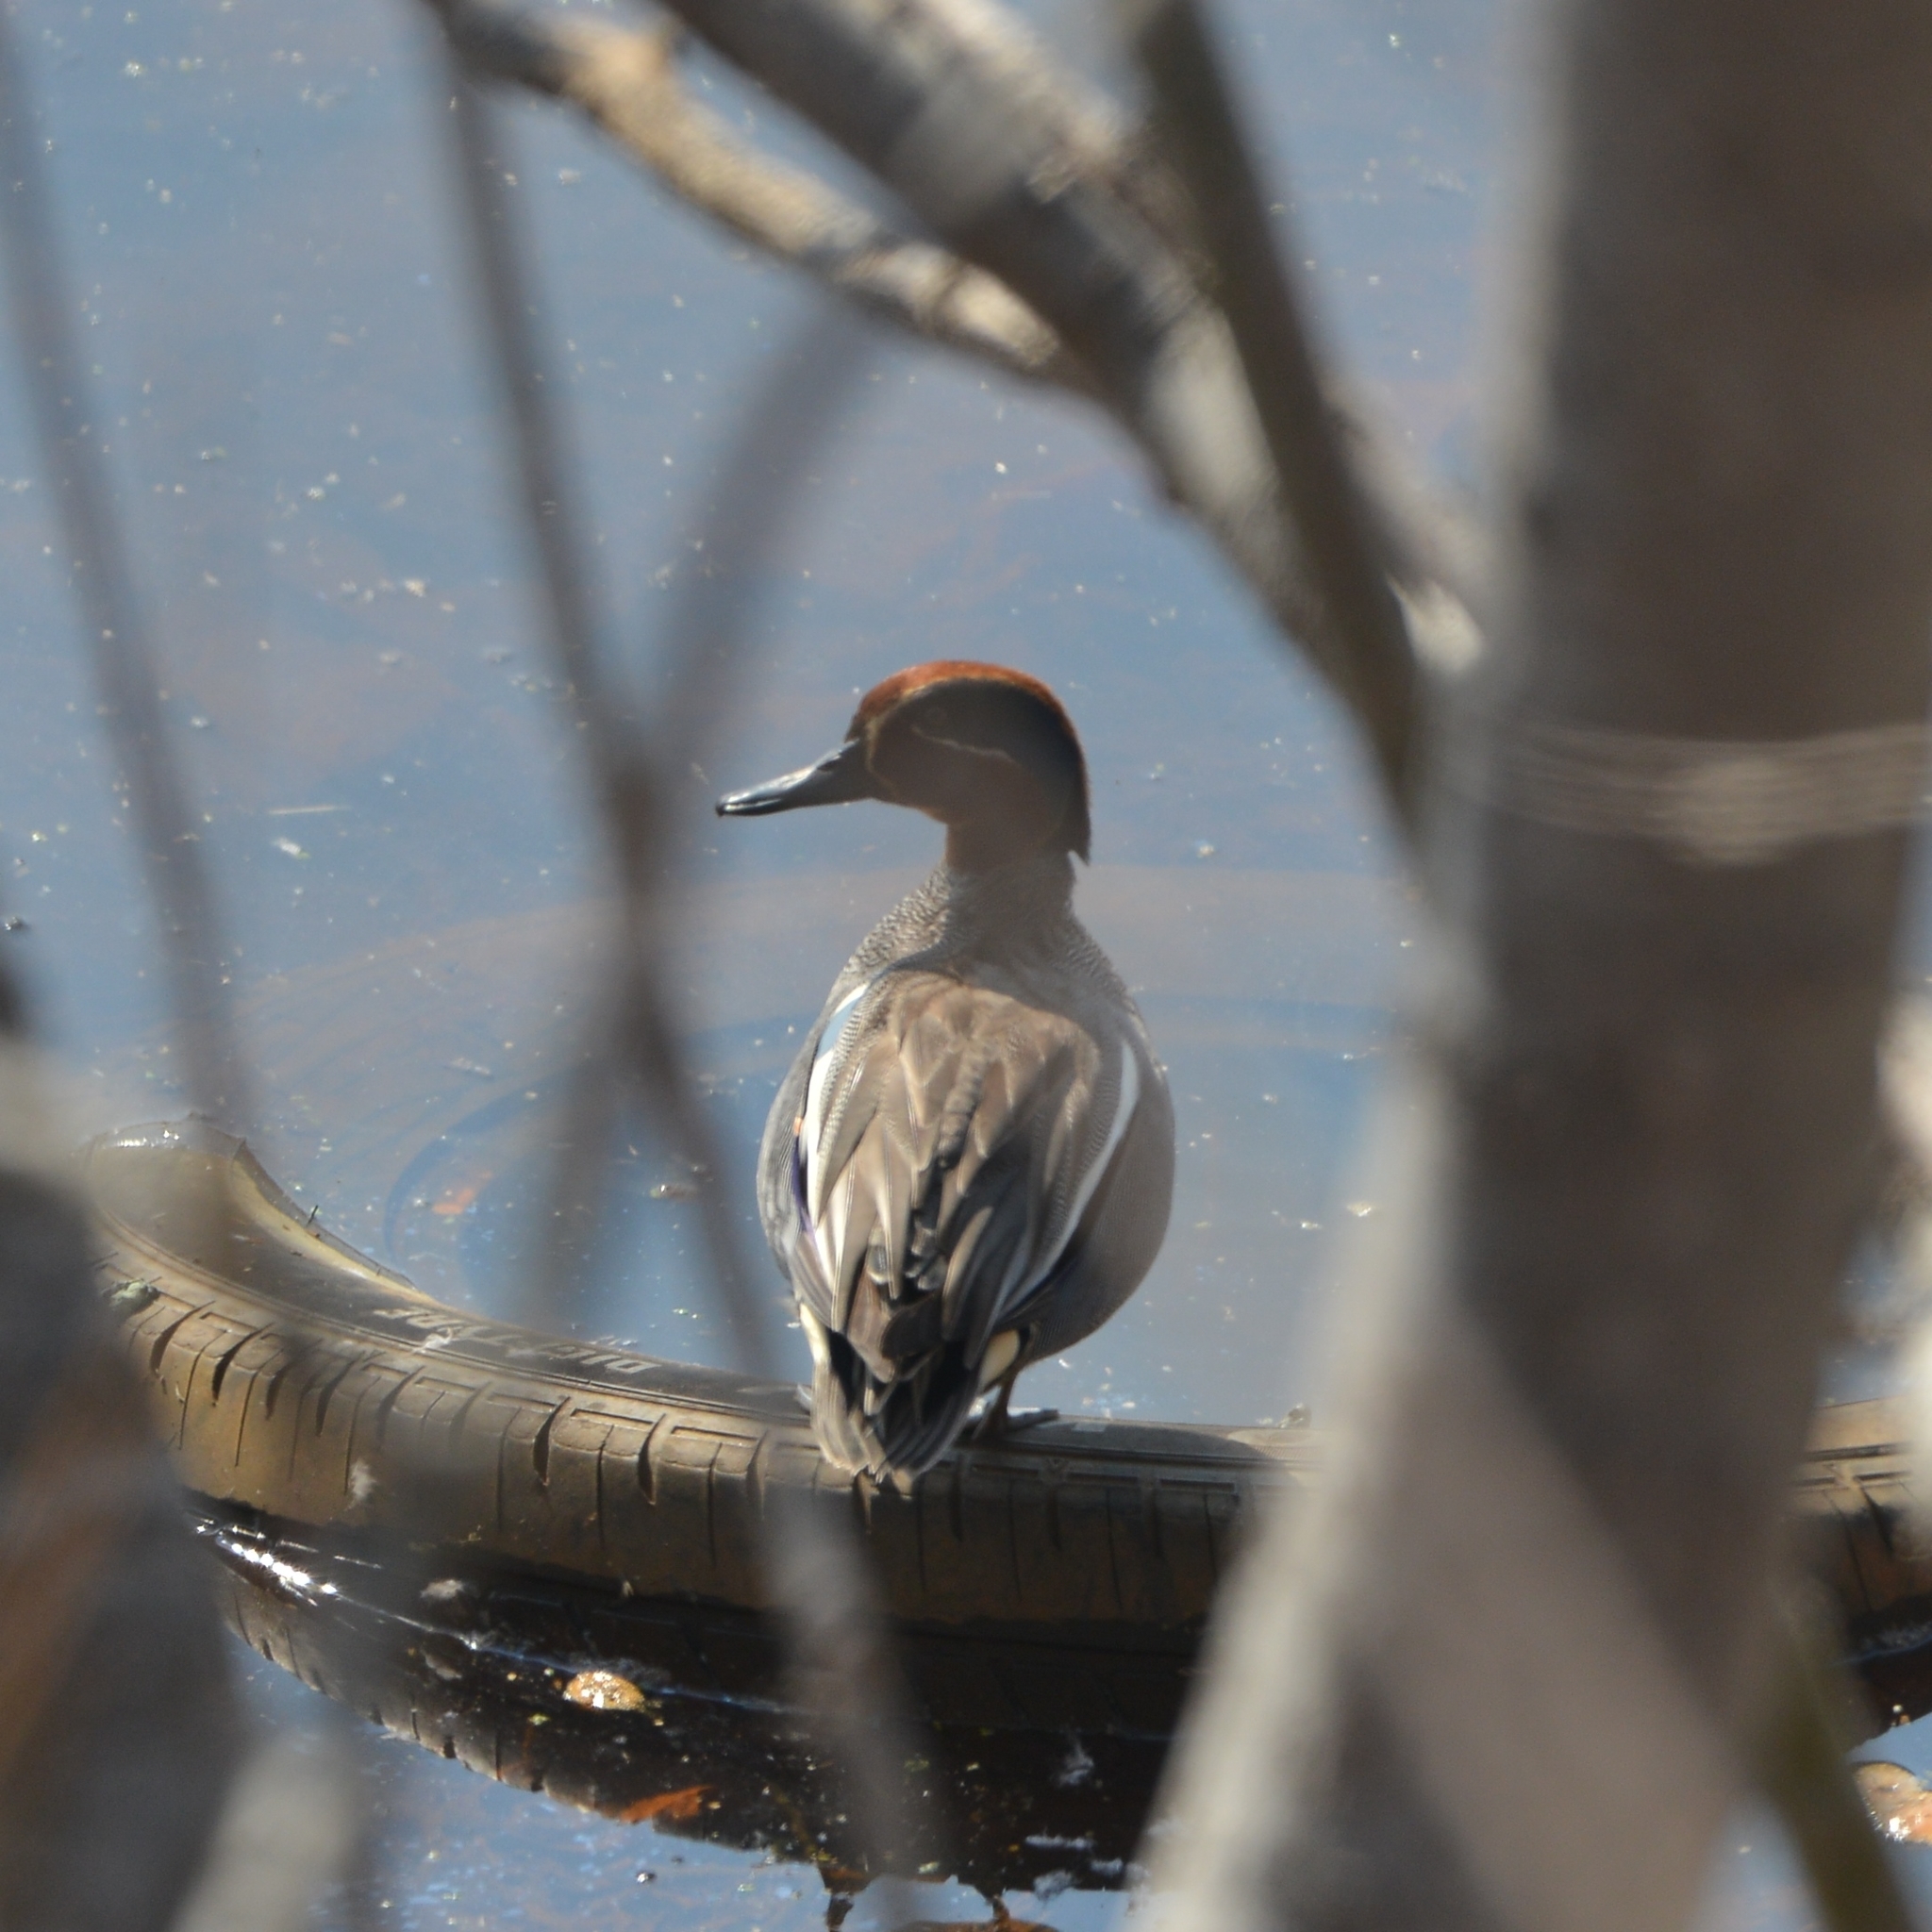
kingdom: Animalia
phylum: Chordata
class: Aves
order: Anseriformes
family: Anatidae
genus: Anas
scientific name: Anas crecca
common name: Eurasian teal
